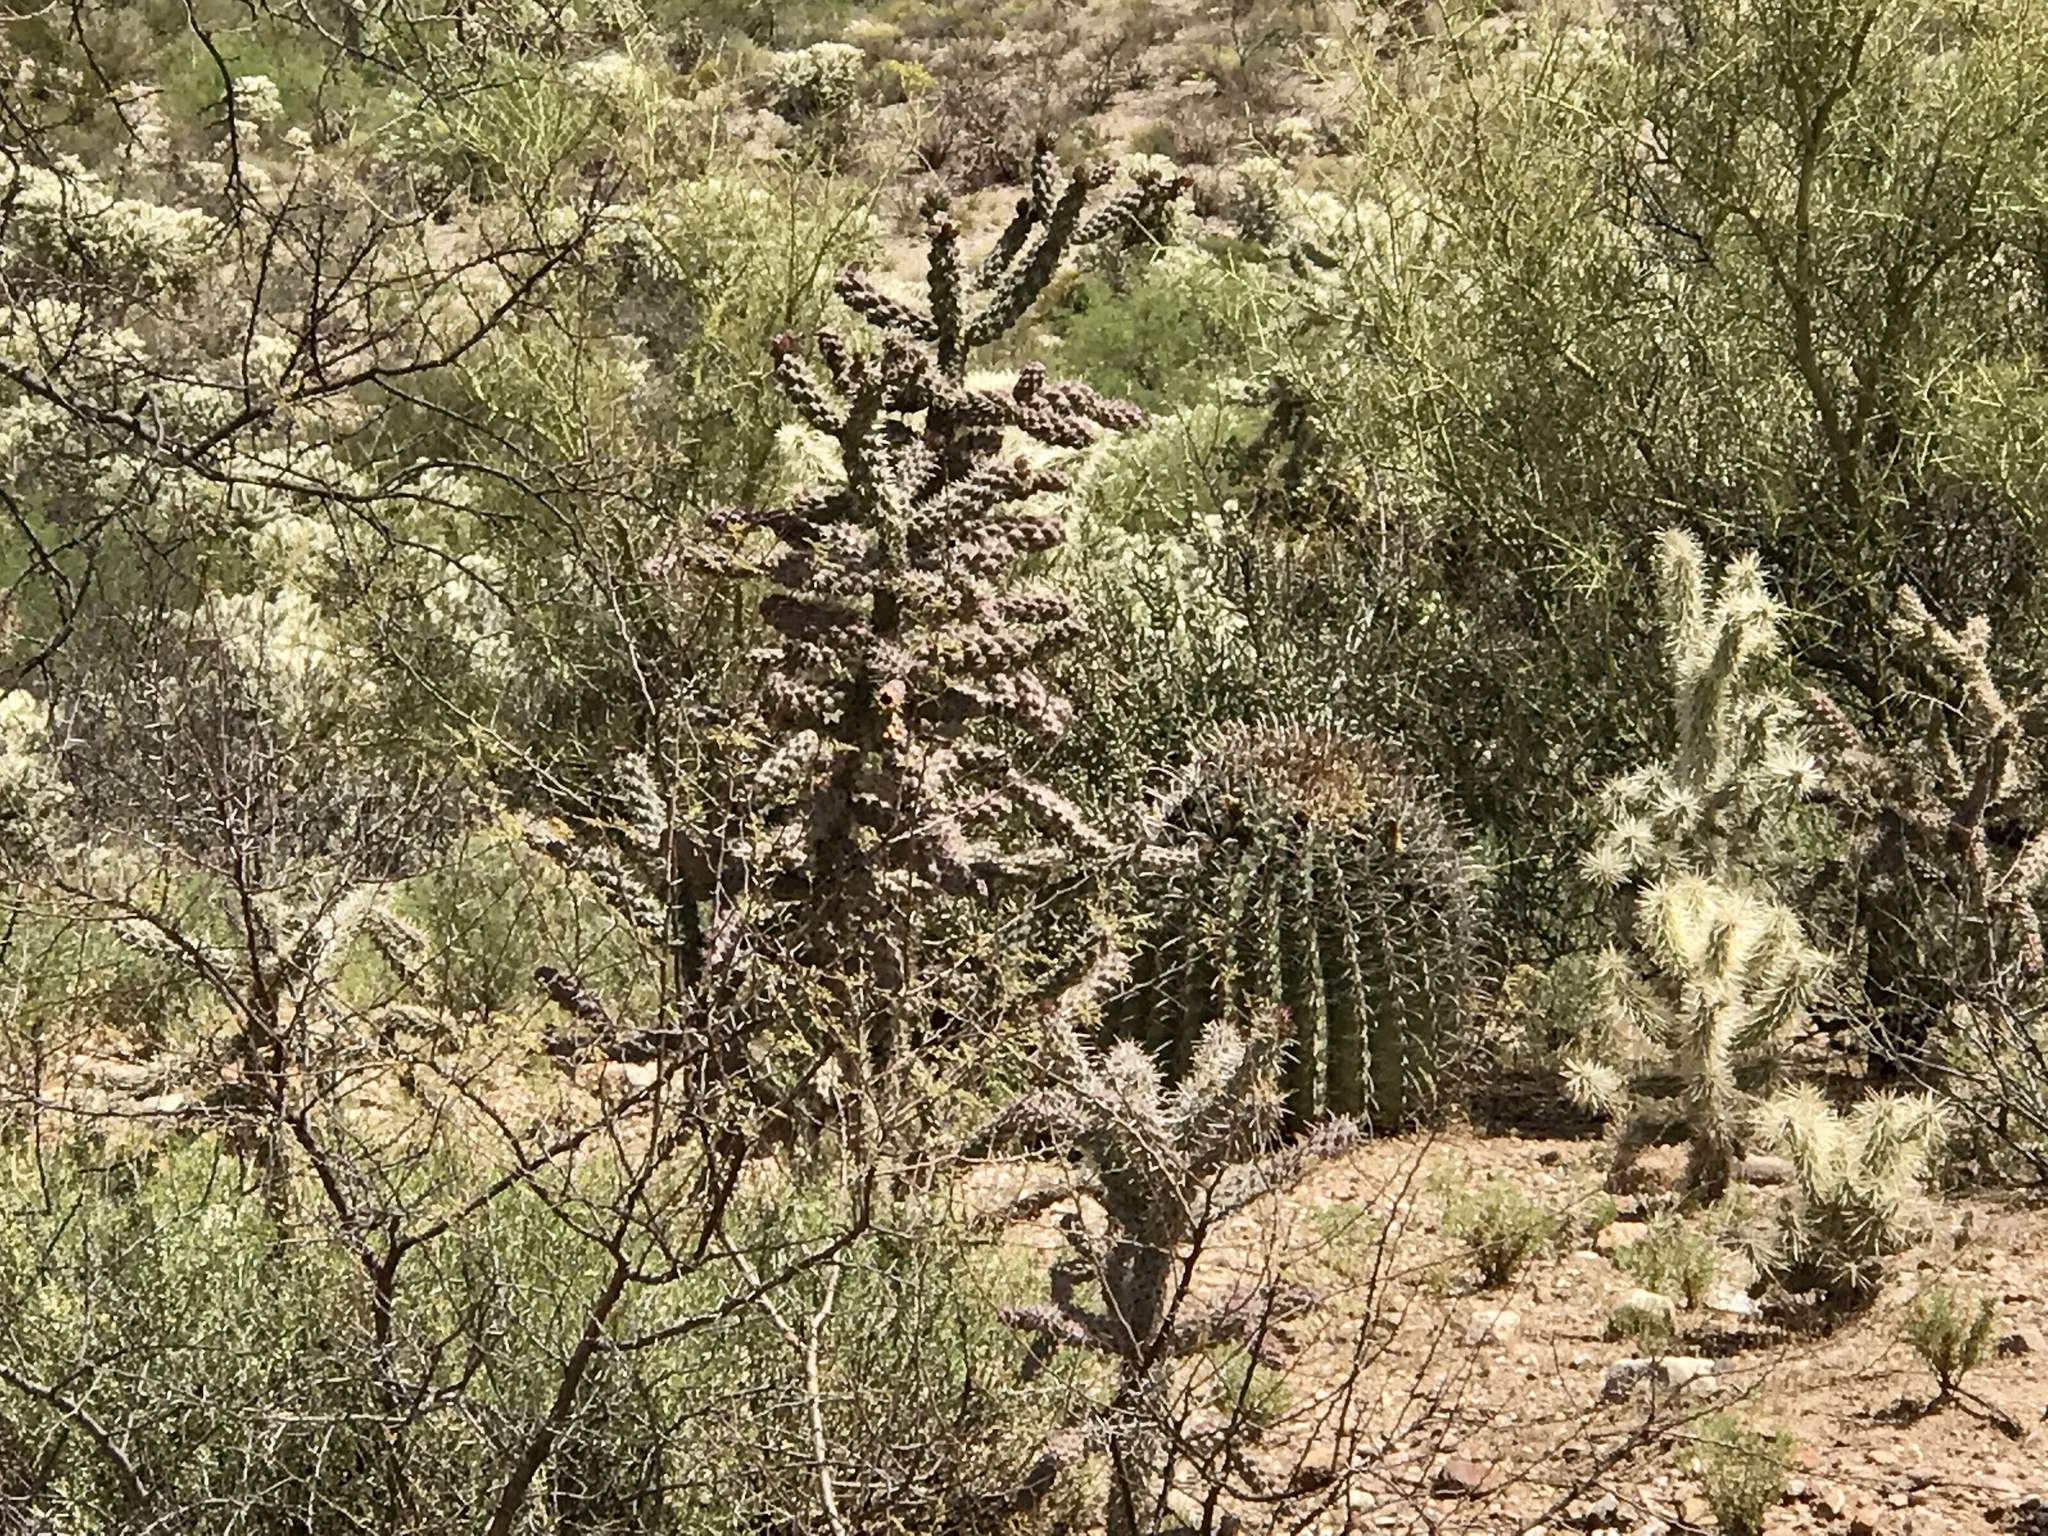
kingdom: Plantae
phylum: Tracheophyta
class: Magnoliopsida
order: Caryophyllales
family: Cactaceae
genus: Cylindropuntia
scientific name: Cylindropuntia fulgida
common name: Jumping cholla
